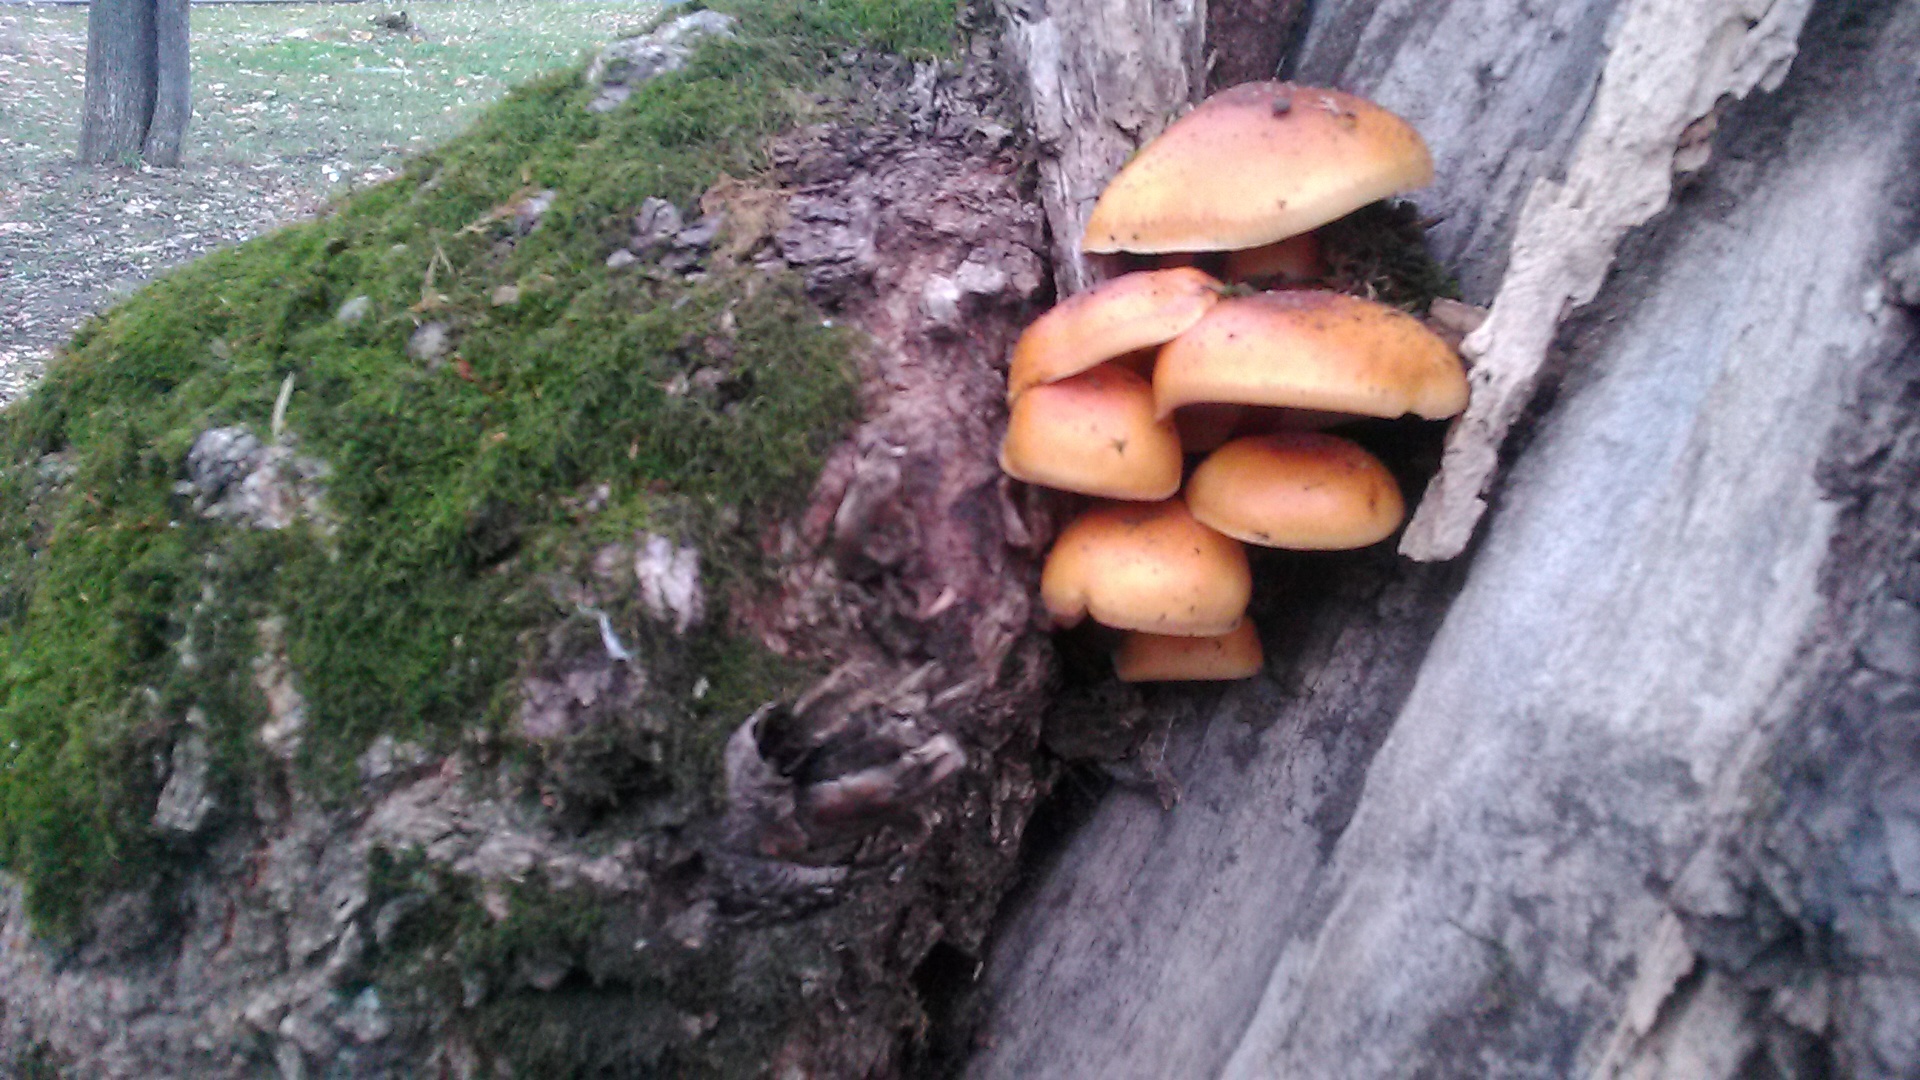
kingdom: Fungi
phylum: Basidiomycota
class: Agaricomycetes
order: Agaricales
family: Physalacriaceae
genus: Flammulina
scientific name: Flammulina
